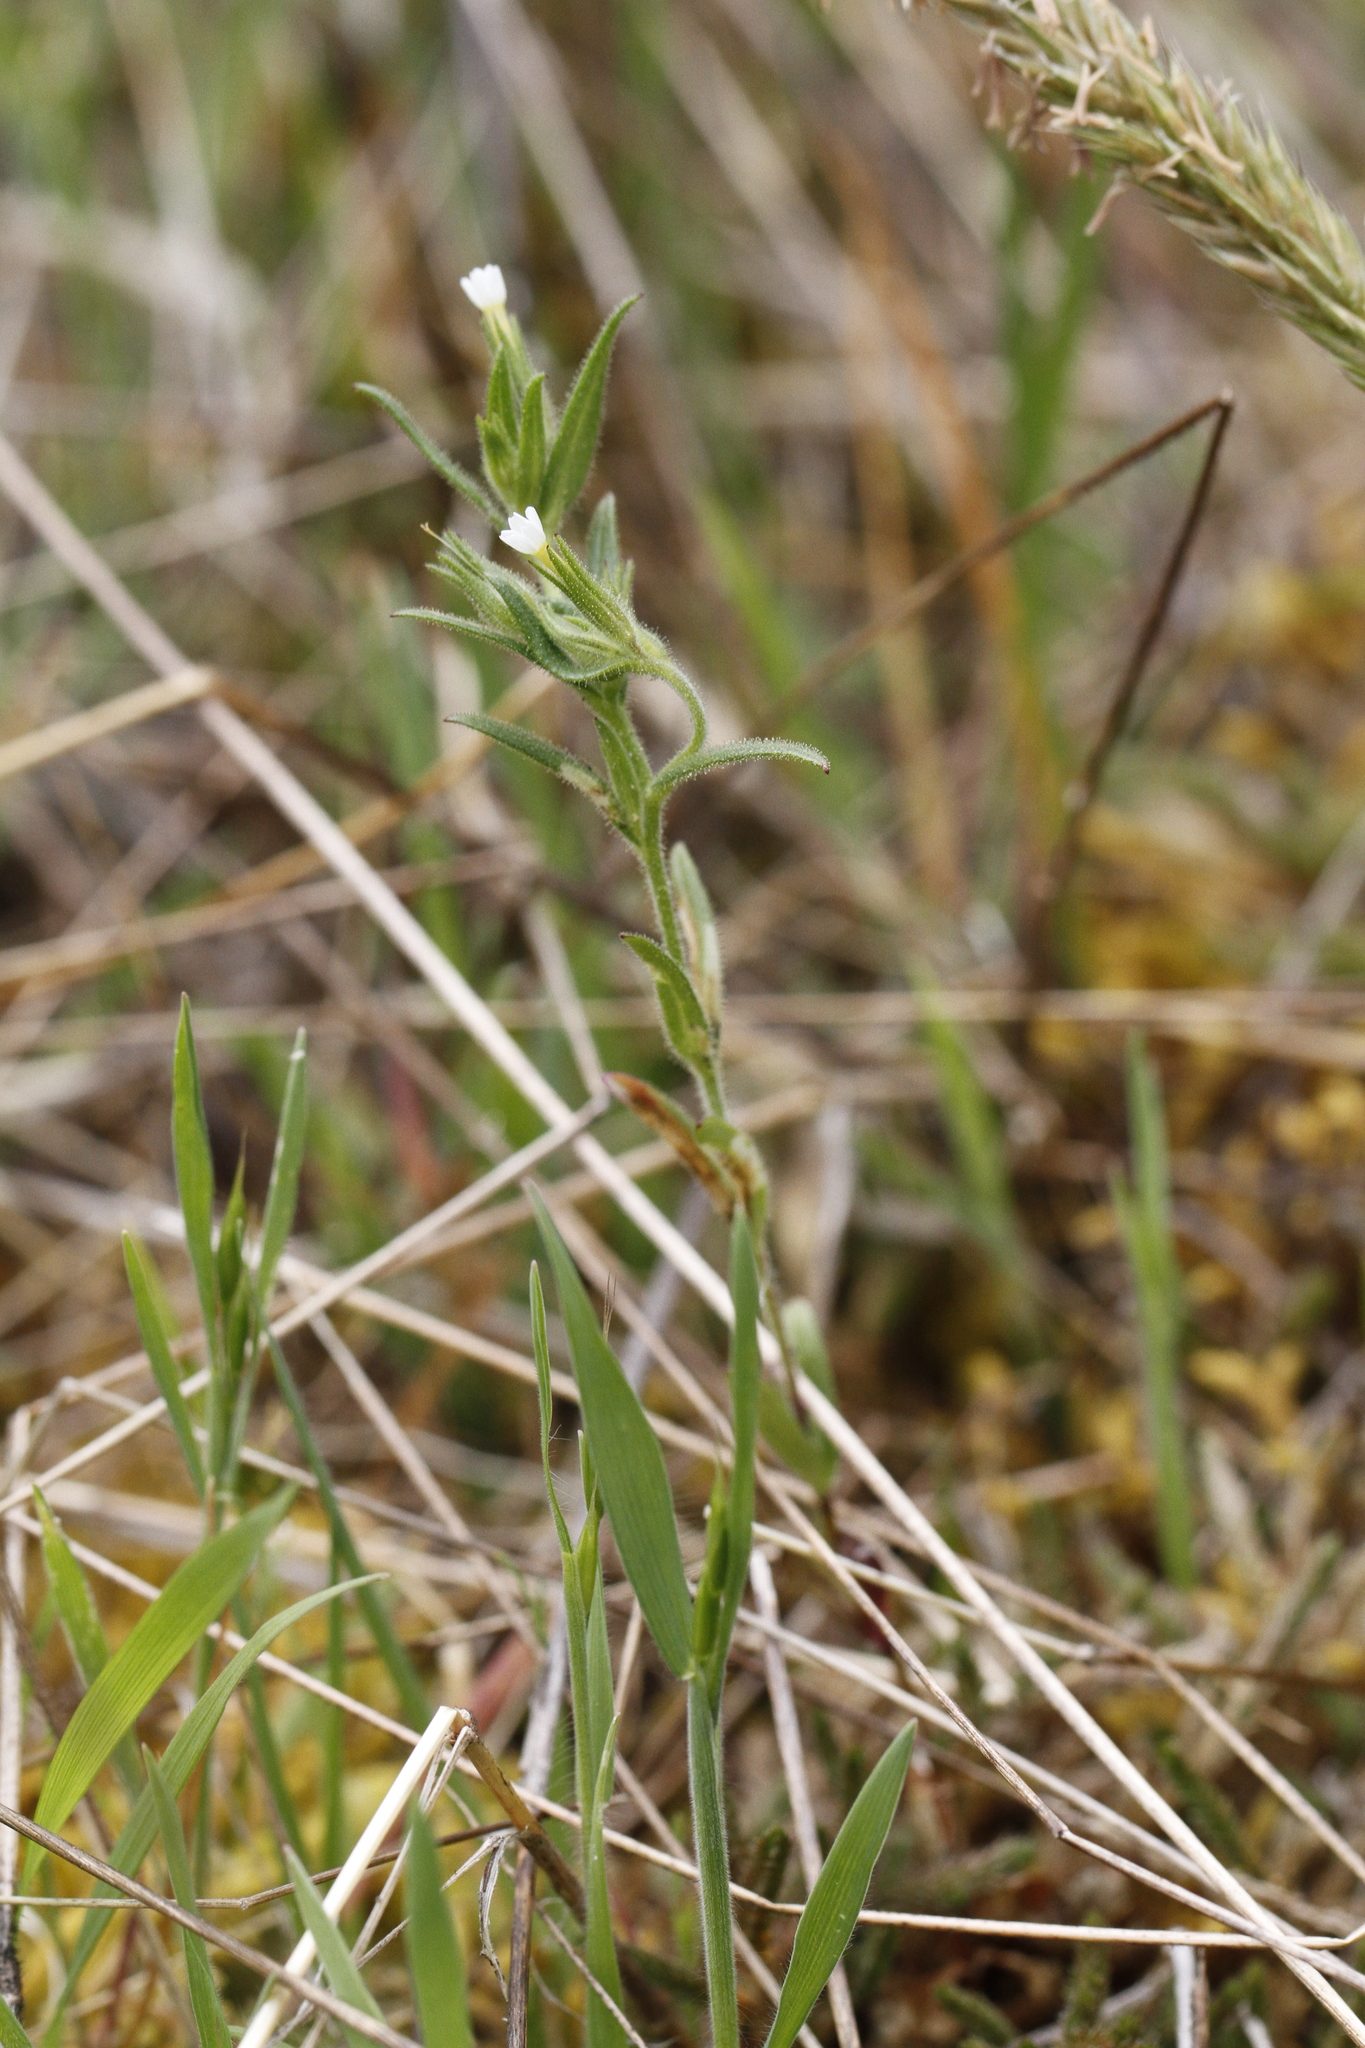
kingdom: Plantae
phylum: Tracheophyta
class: Magnoliopsida
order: Ericales
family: Polemoniaceae
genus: Phlox
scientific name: Phlox gracilis
